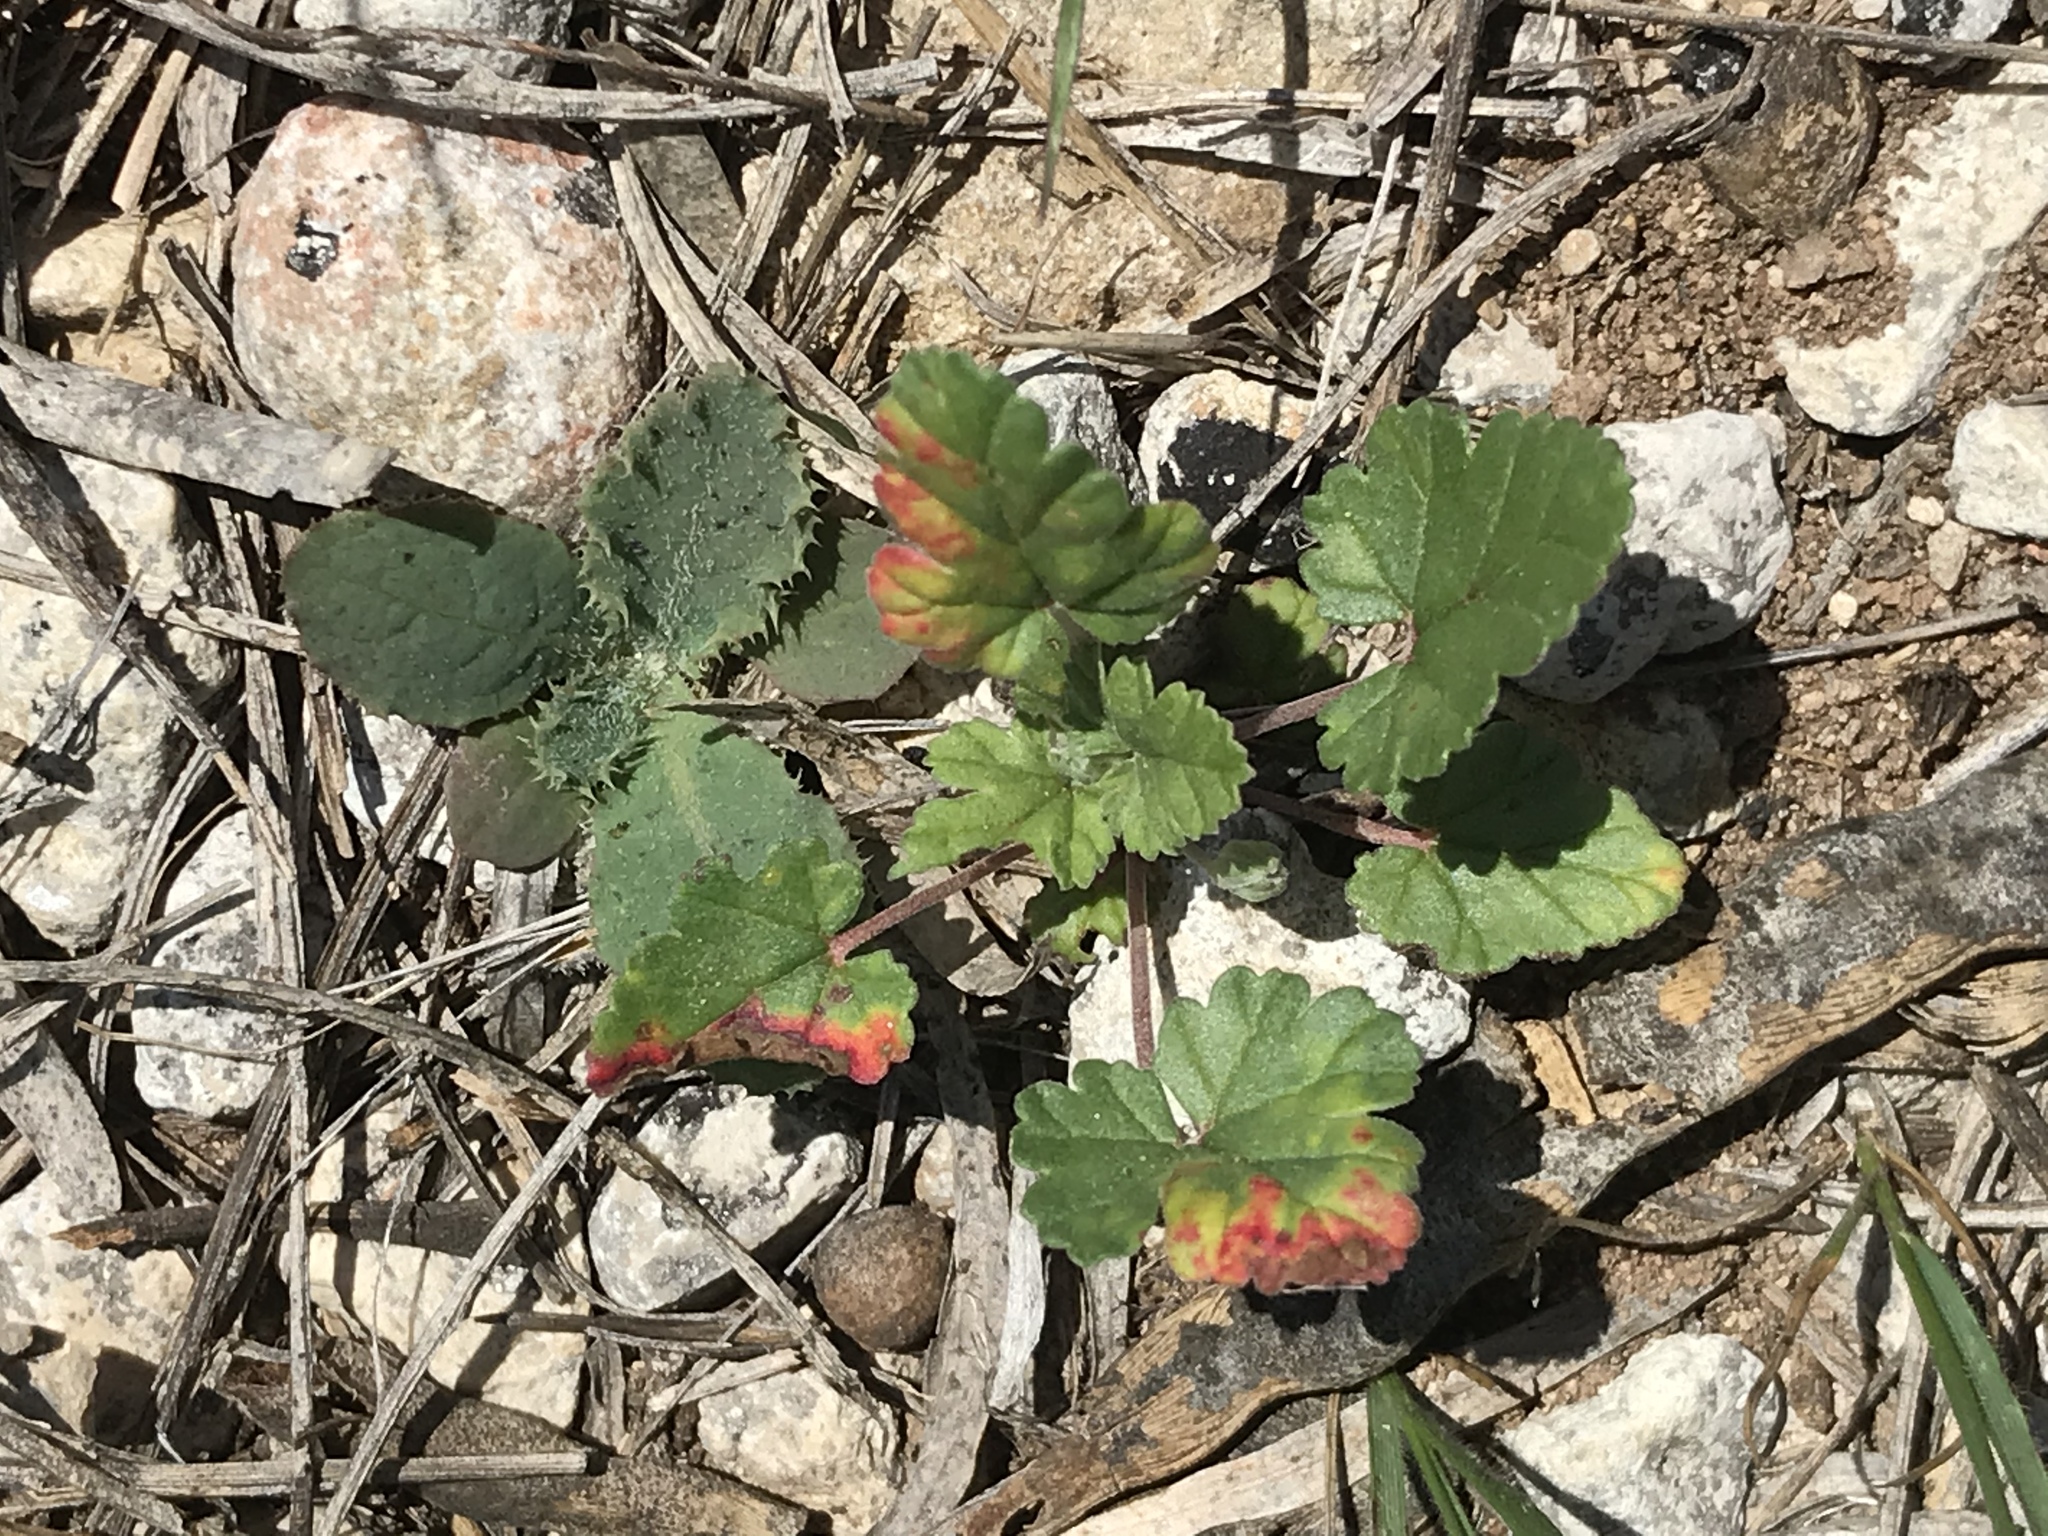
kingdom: Plantae
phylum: Tracheophyta
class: Magnoliopsida
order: Geraniales
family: Geraniaceae
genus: Erodium
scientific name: Erodium texanum
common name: Texas stork's-bill
